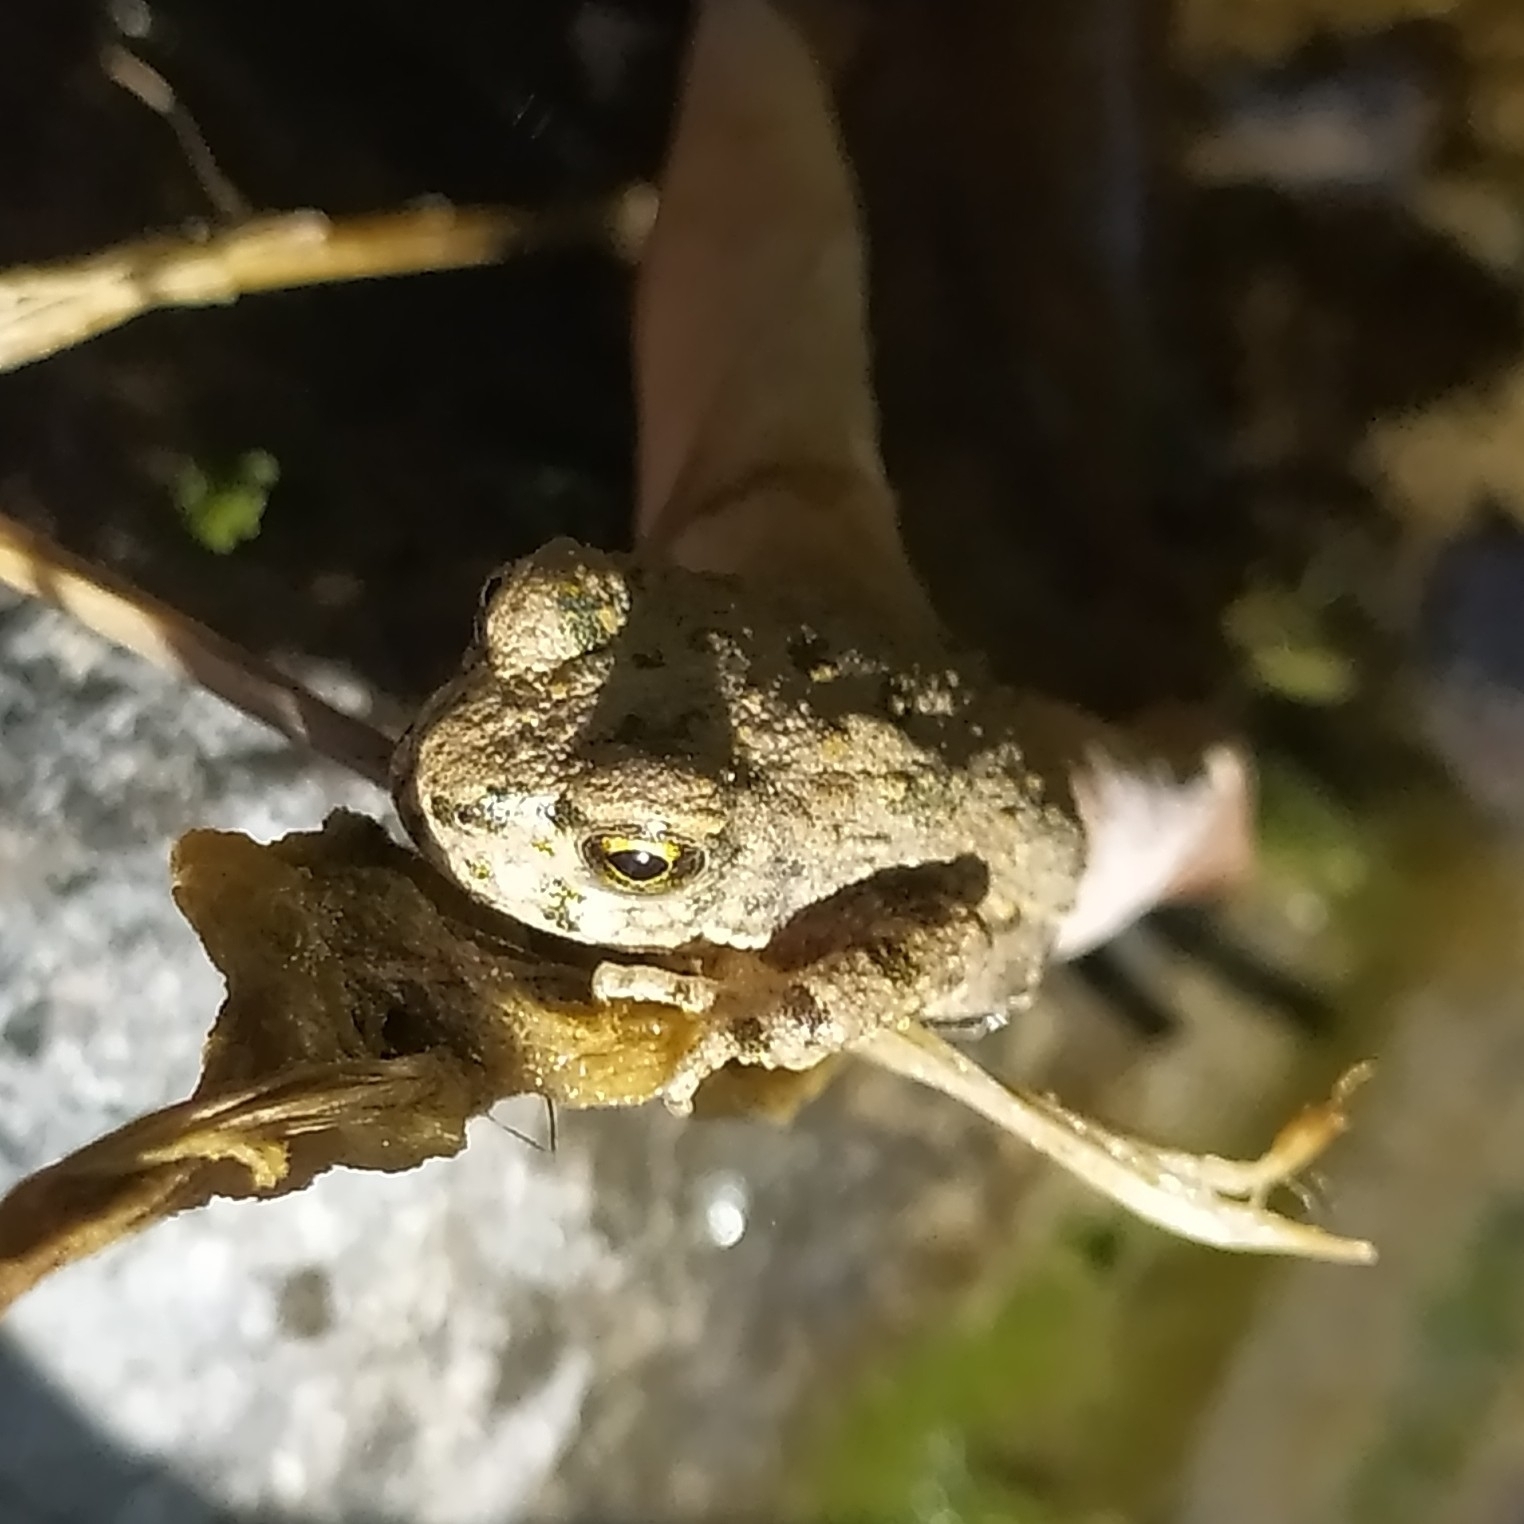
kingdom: Animalia
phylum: Chordata
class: Amphibia
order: Anura
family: Bufonidae
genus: Bufotes
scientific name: Bufotes pewzowi
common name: Xinjiang toad
